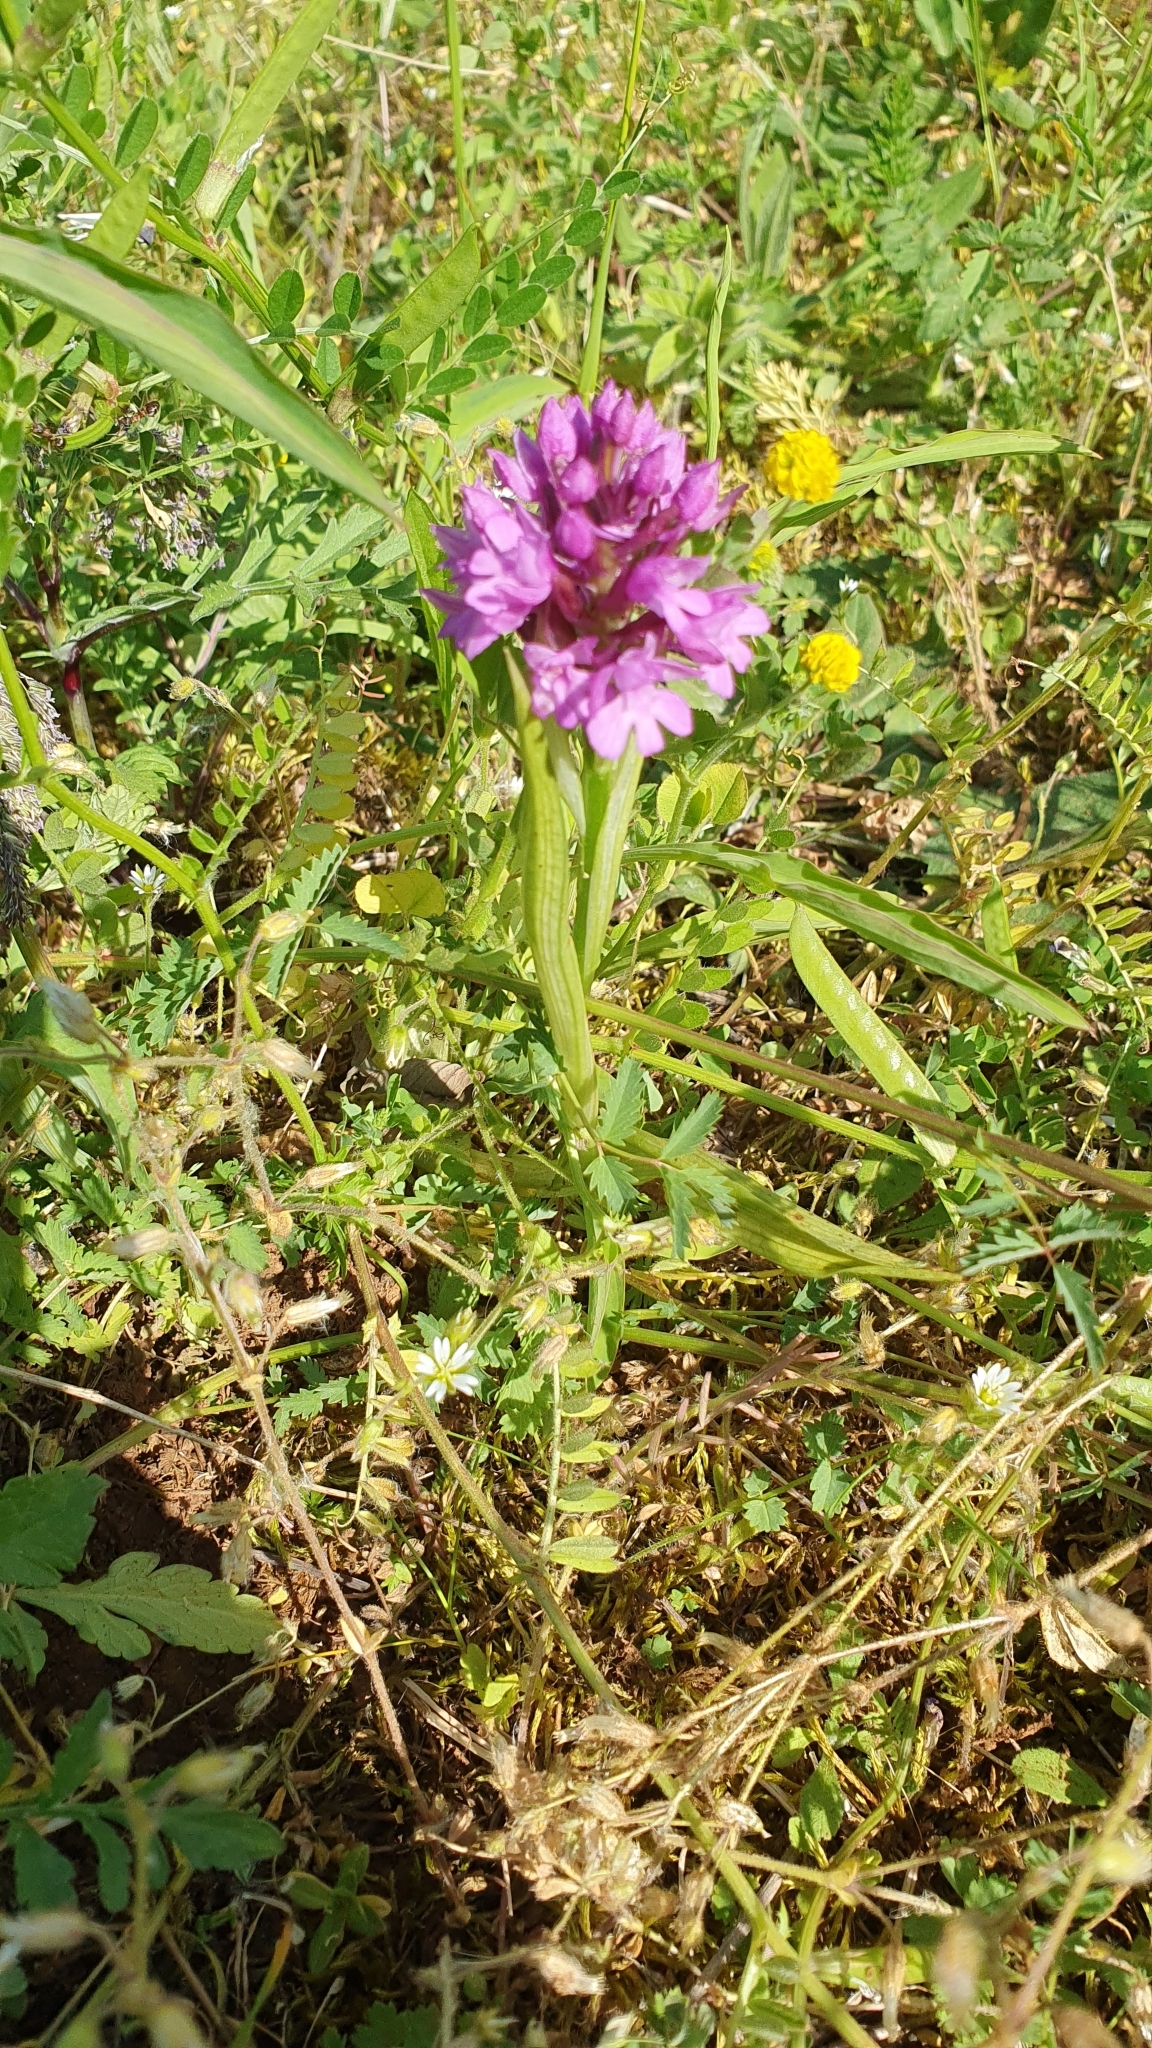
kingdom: Plantae
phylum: Tracheophyta
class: Liliopsida
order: Asparagales
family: Orchidaceae
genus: Anacamptis
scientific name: Anacamptis pyramidalis
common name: Pyramidal orchid
